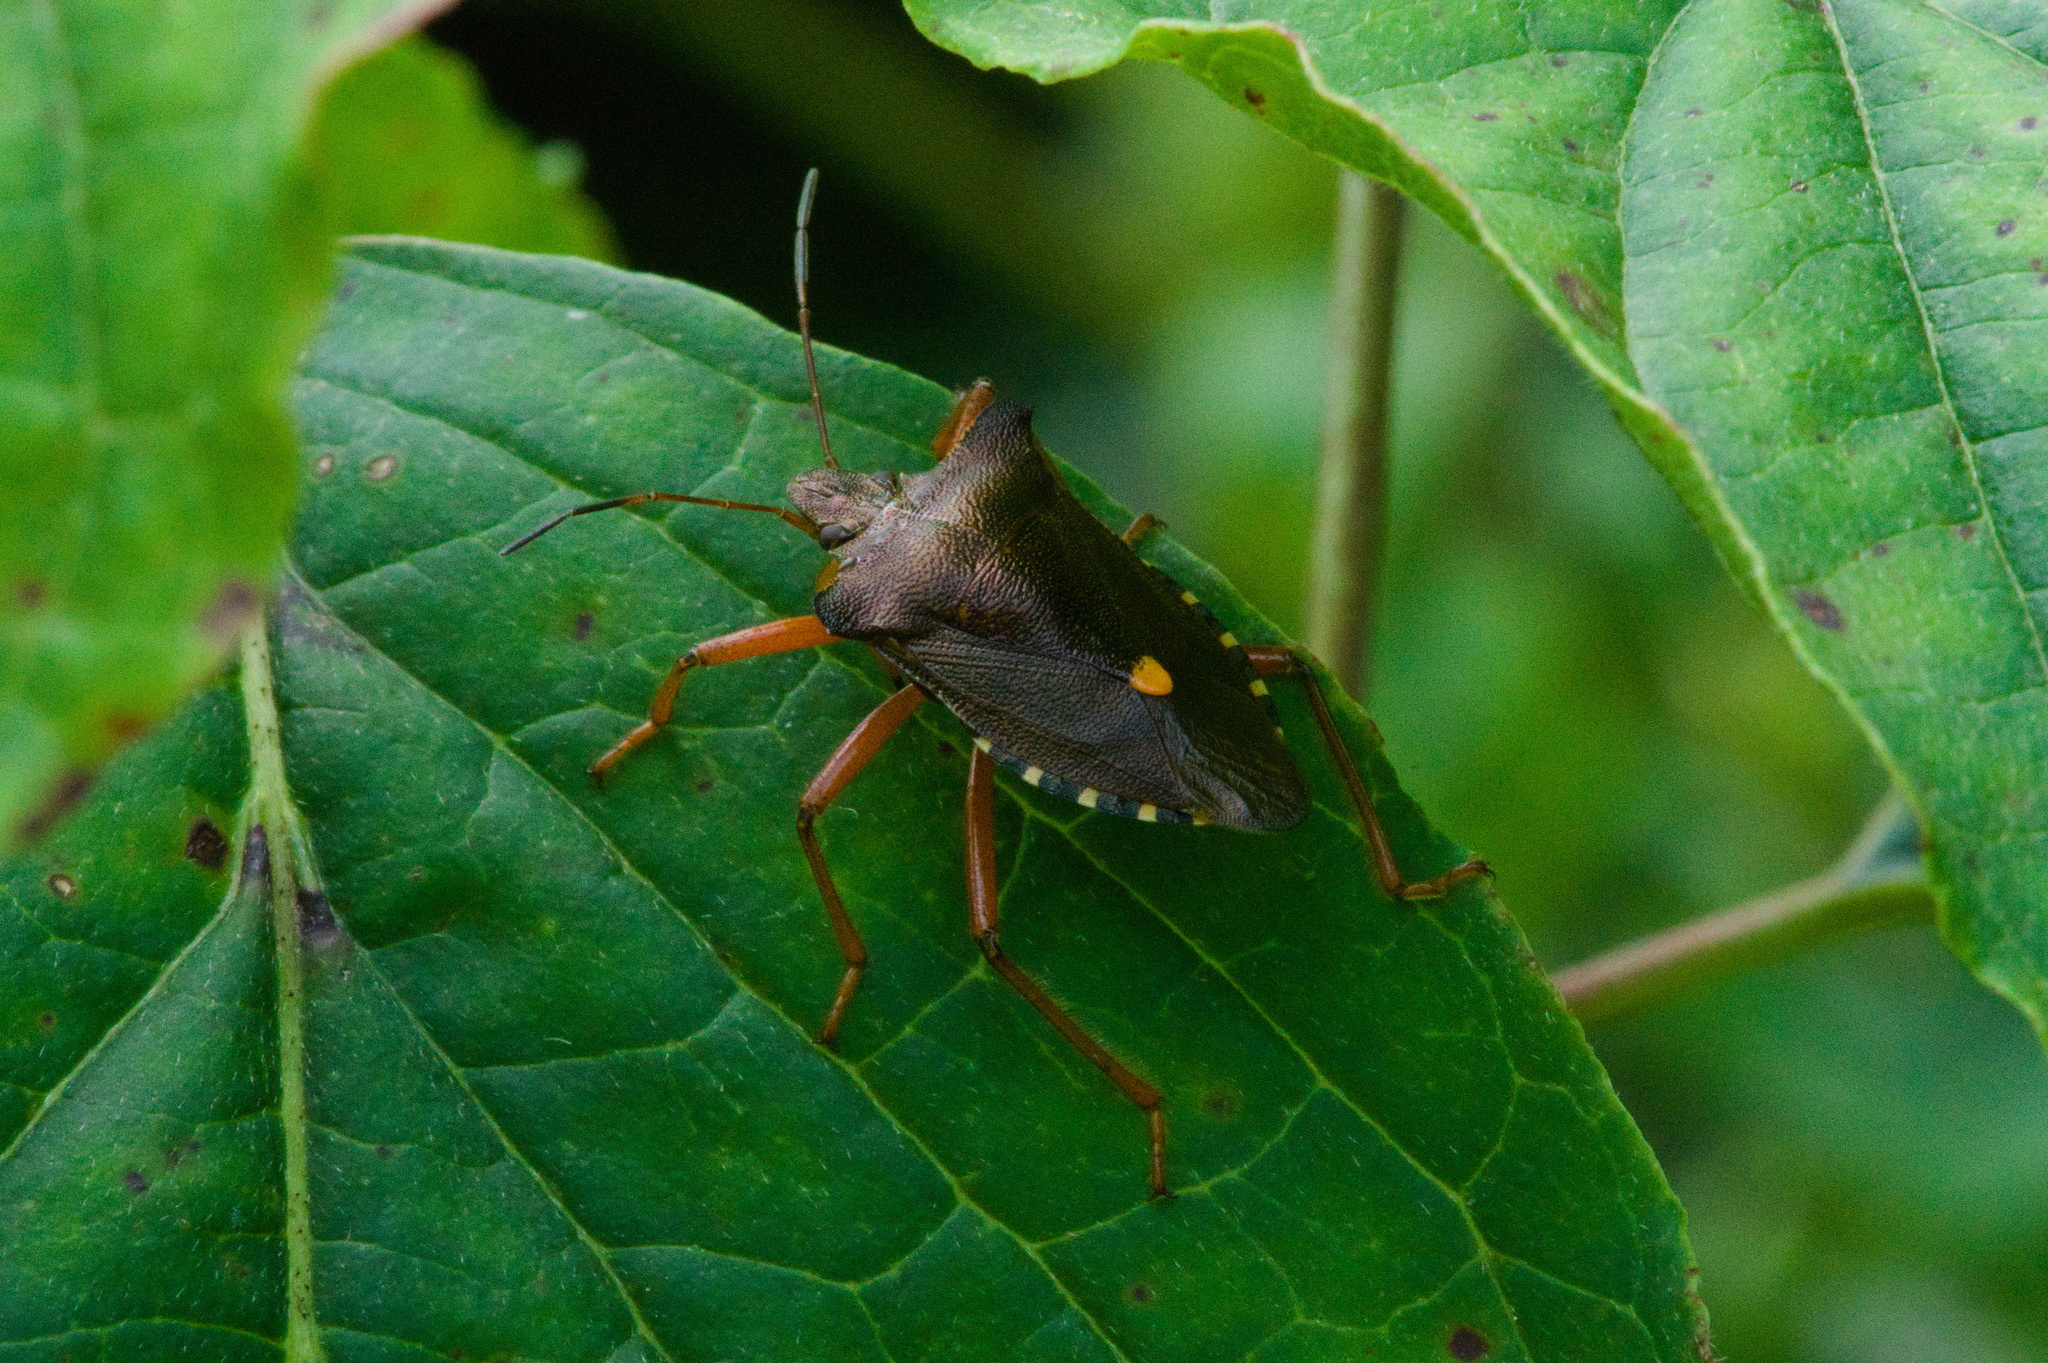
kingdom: Animalia
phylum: Arthropoda
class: Insecta
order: Hemiptera
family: Pentatomidae
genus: Pentatoma
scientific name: Pentatoma rufipes
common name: Forest bug
